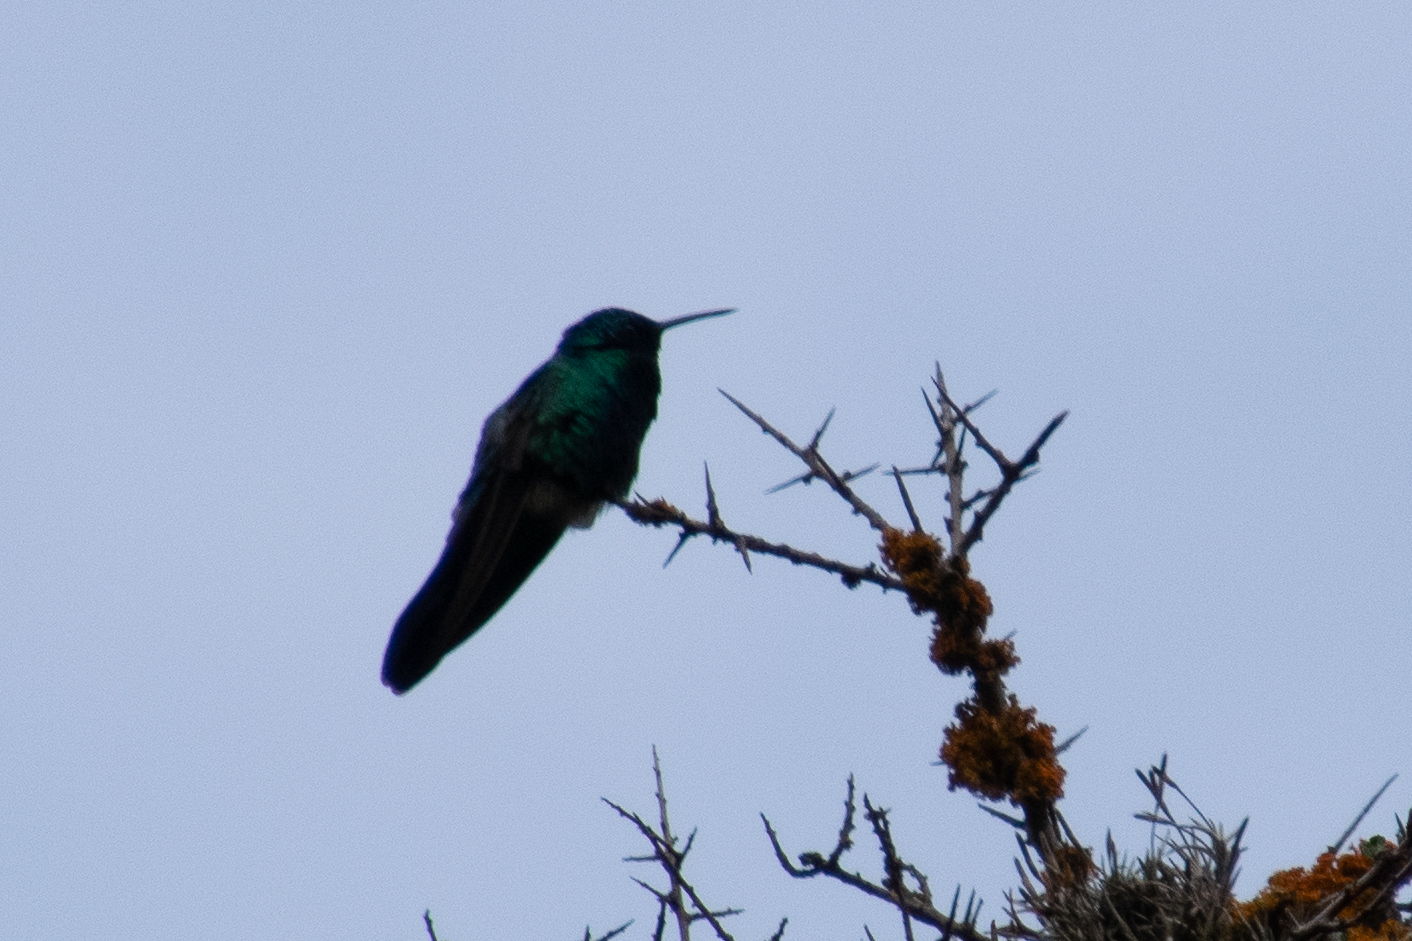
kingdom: Animalia
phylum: Chordata
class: Aves
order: Apodiformes
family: Trochilidae
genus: Colibri
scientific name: Colibri coruscans
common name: Sparkling violetear
